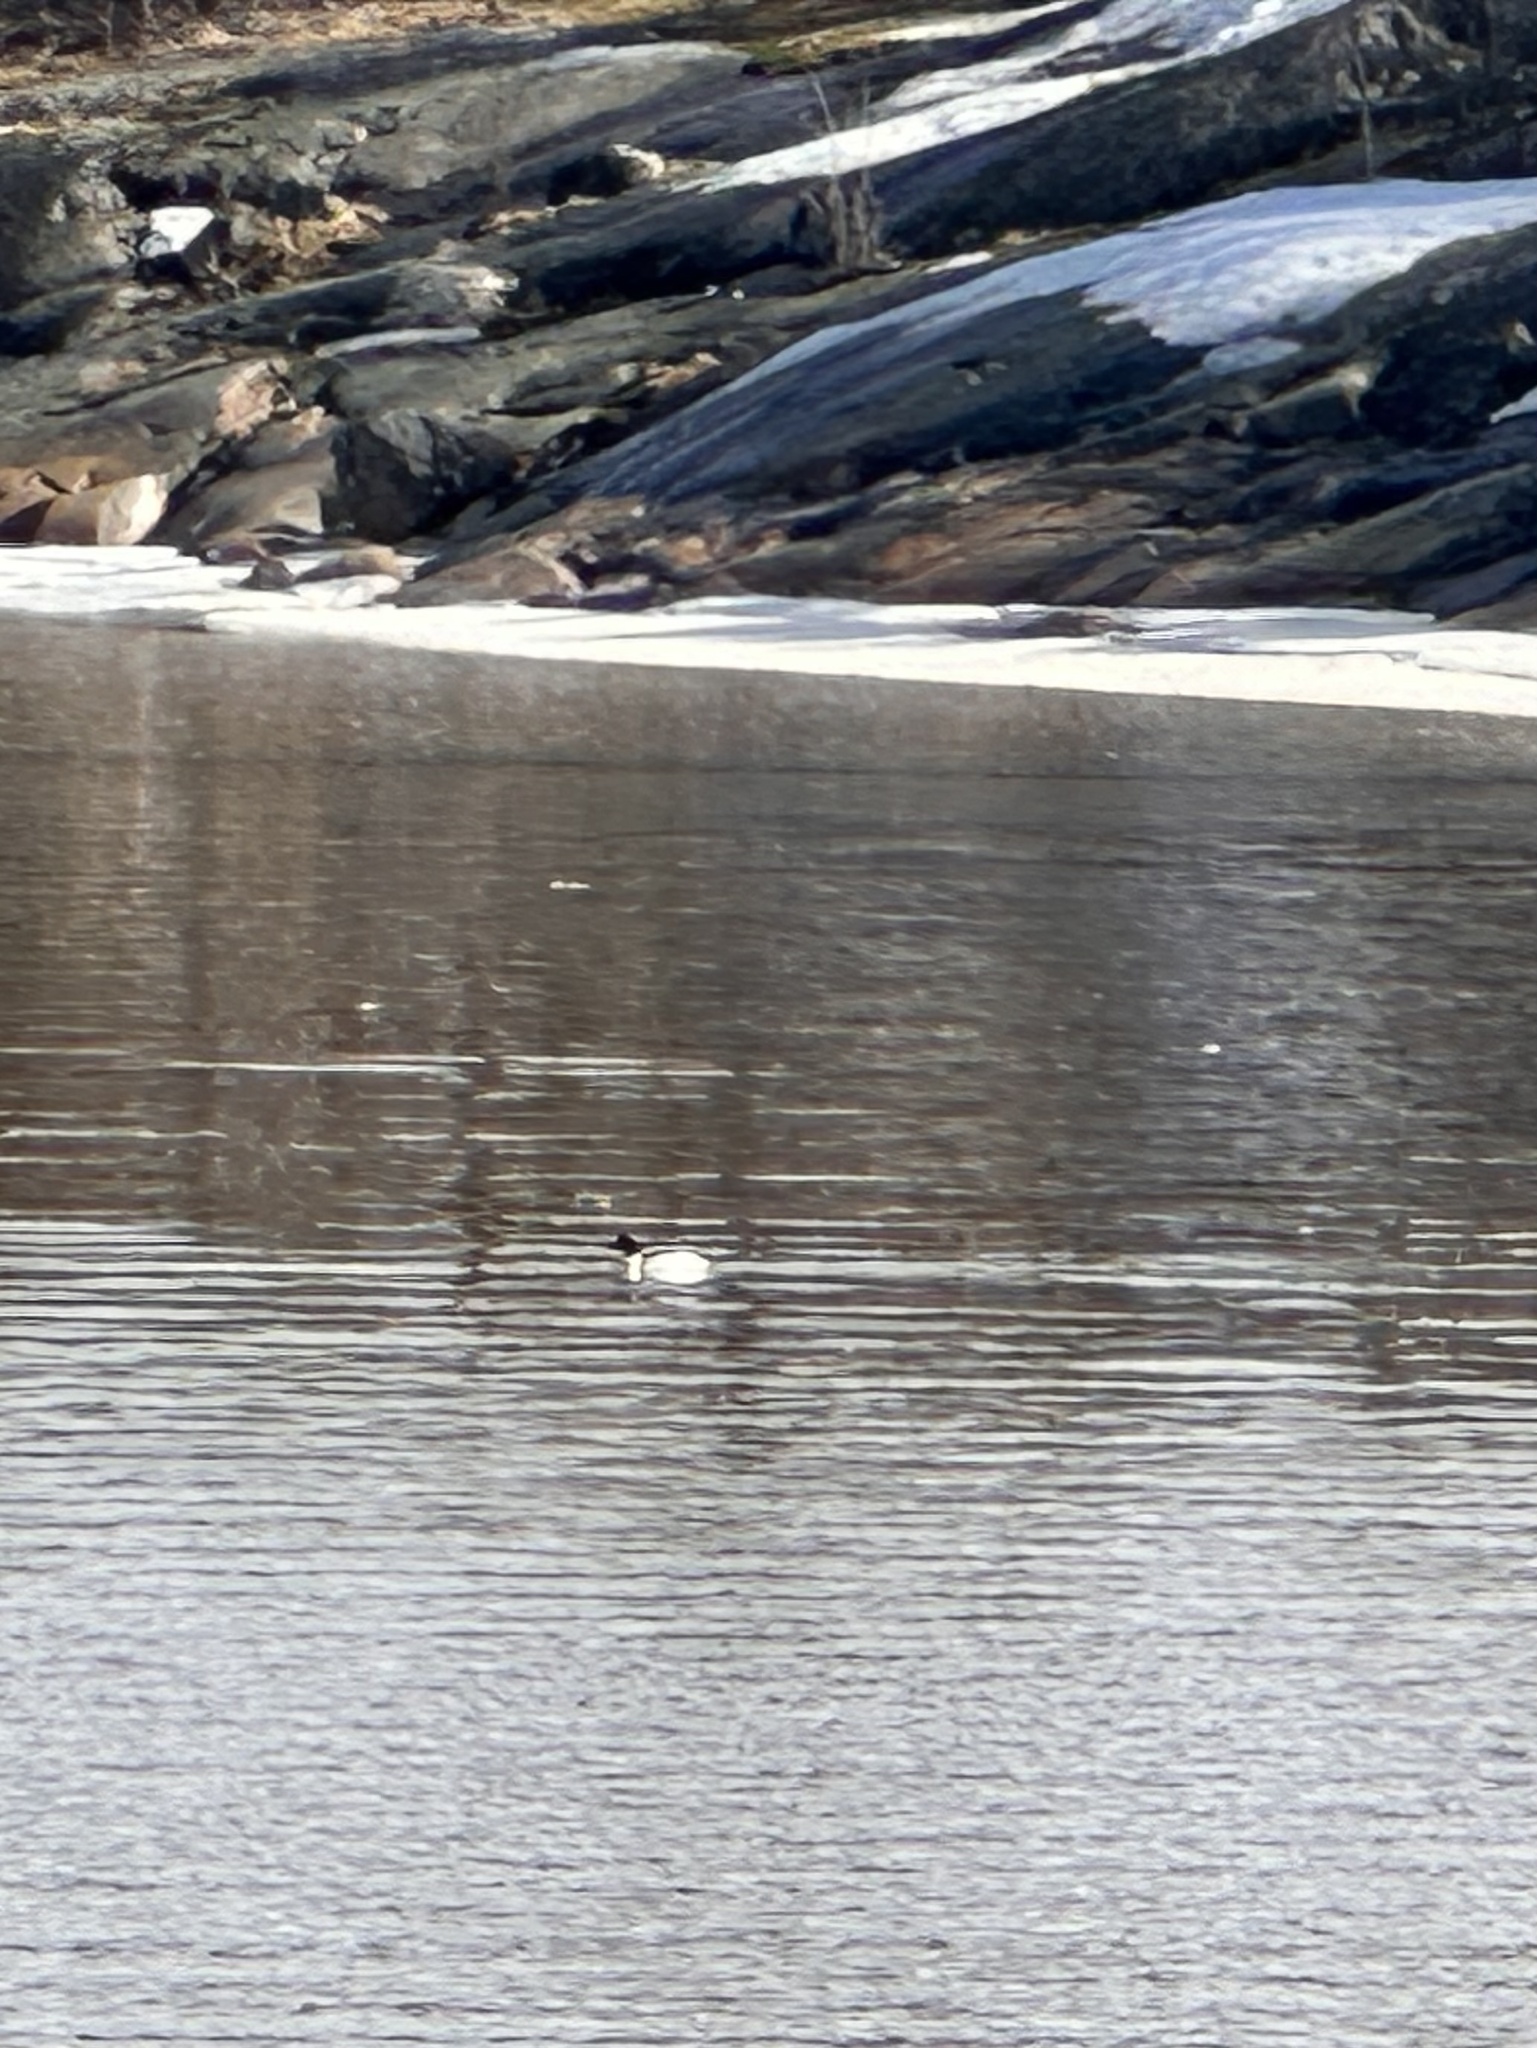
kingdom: Animalia
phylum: Chordata
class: Aves
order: Anseriformes
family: Anatidae
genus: Mergus
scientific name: Mergus merganser
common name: Common merganser
